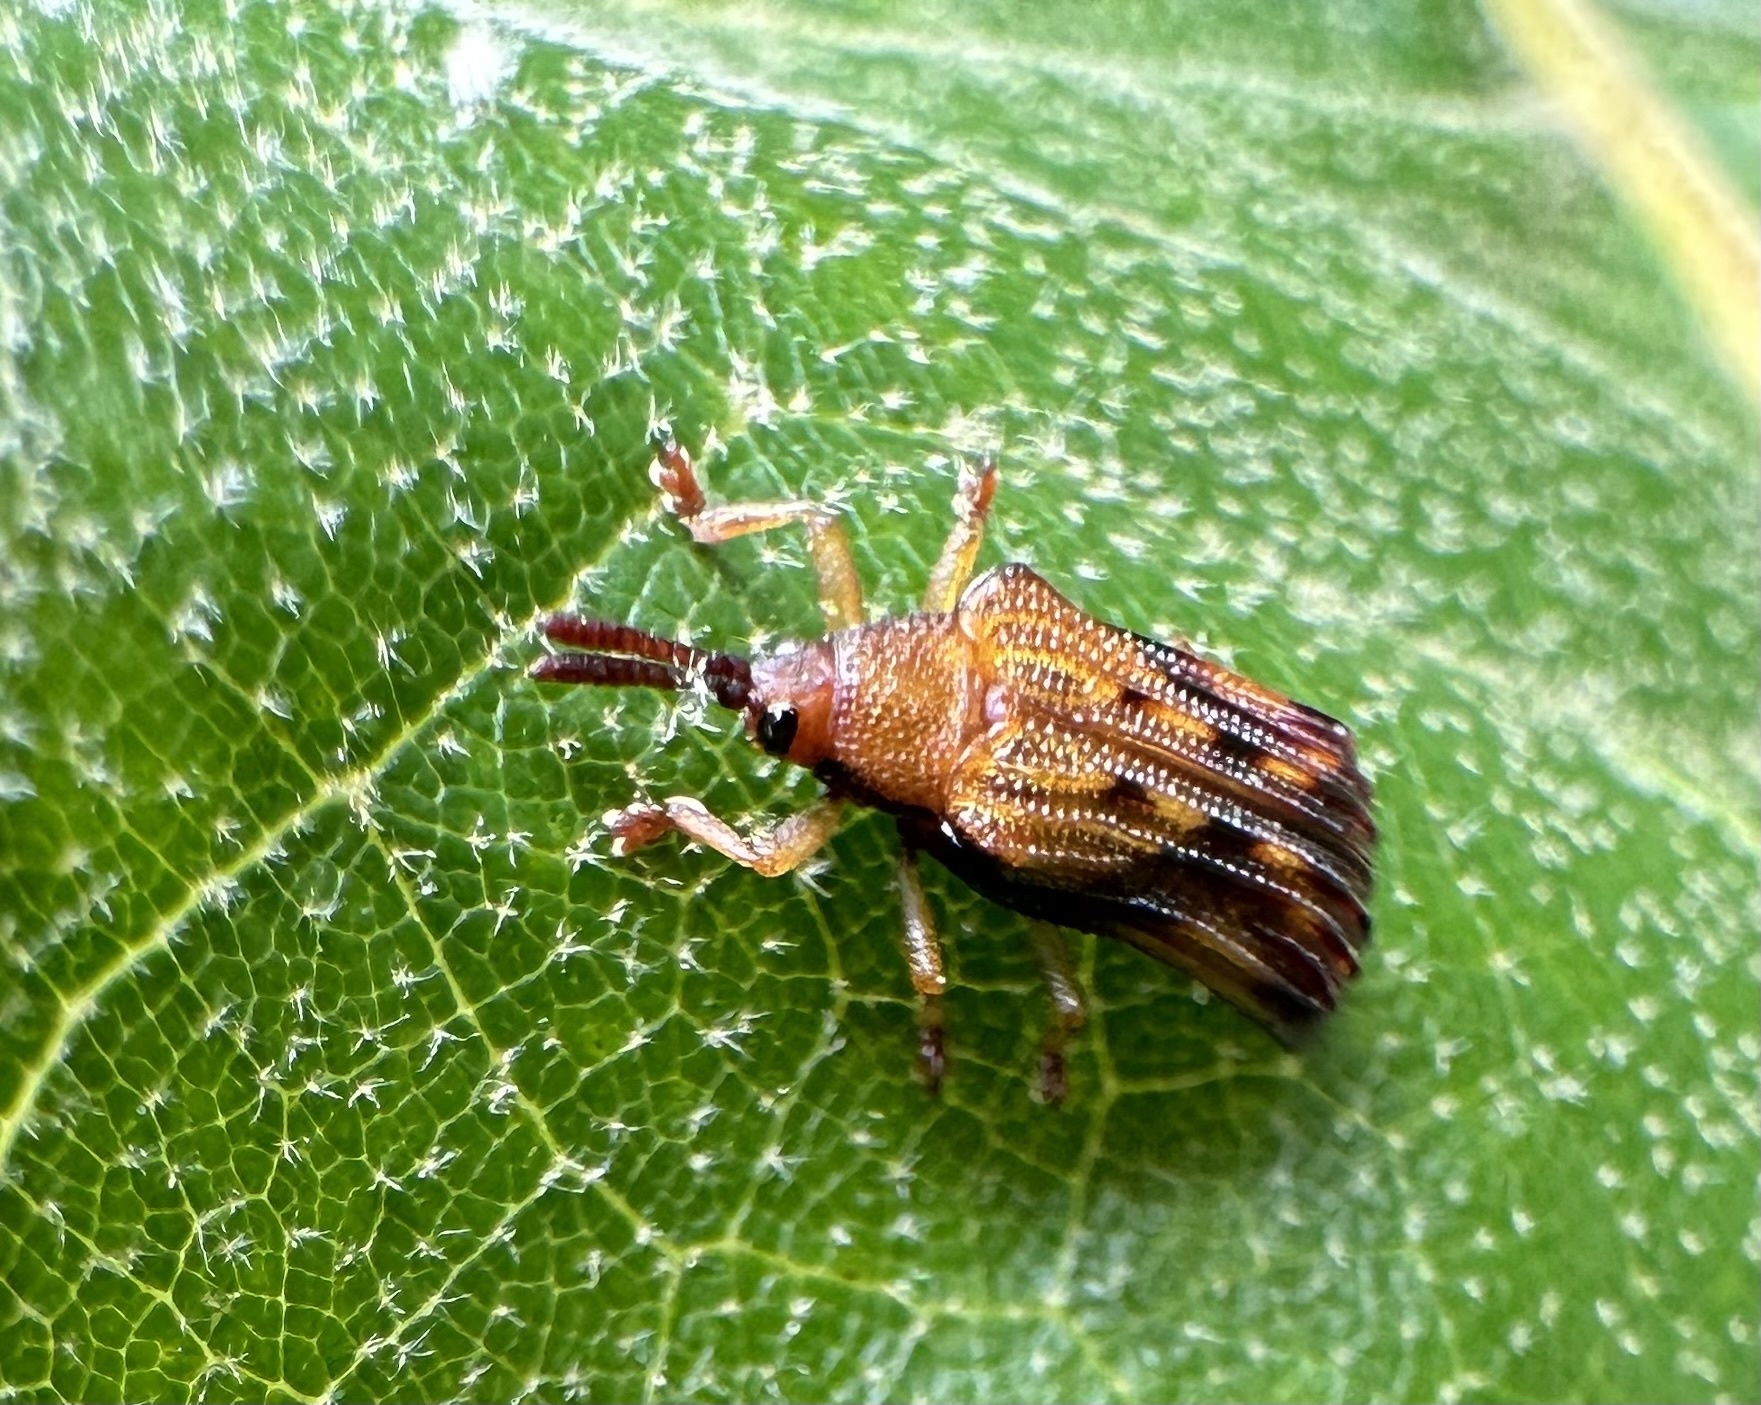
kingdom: Animalia
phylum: Arthropoda
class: Insecta
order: Coleoptera
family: Chrysomelidae
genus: Baliosus
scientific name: Baliosus nervosus
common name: Basswood leaf miner
